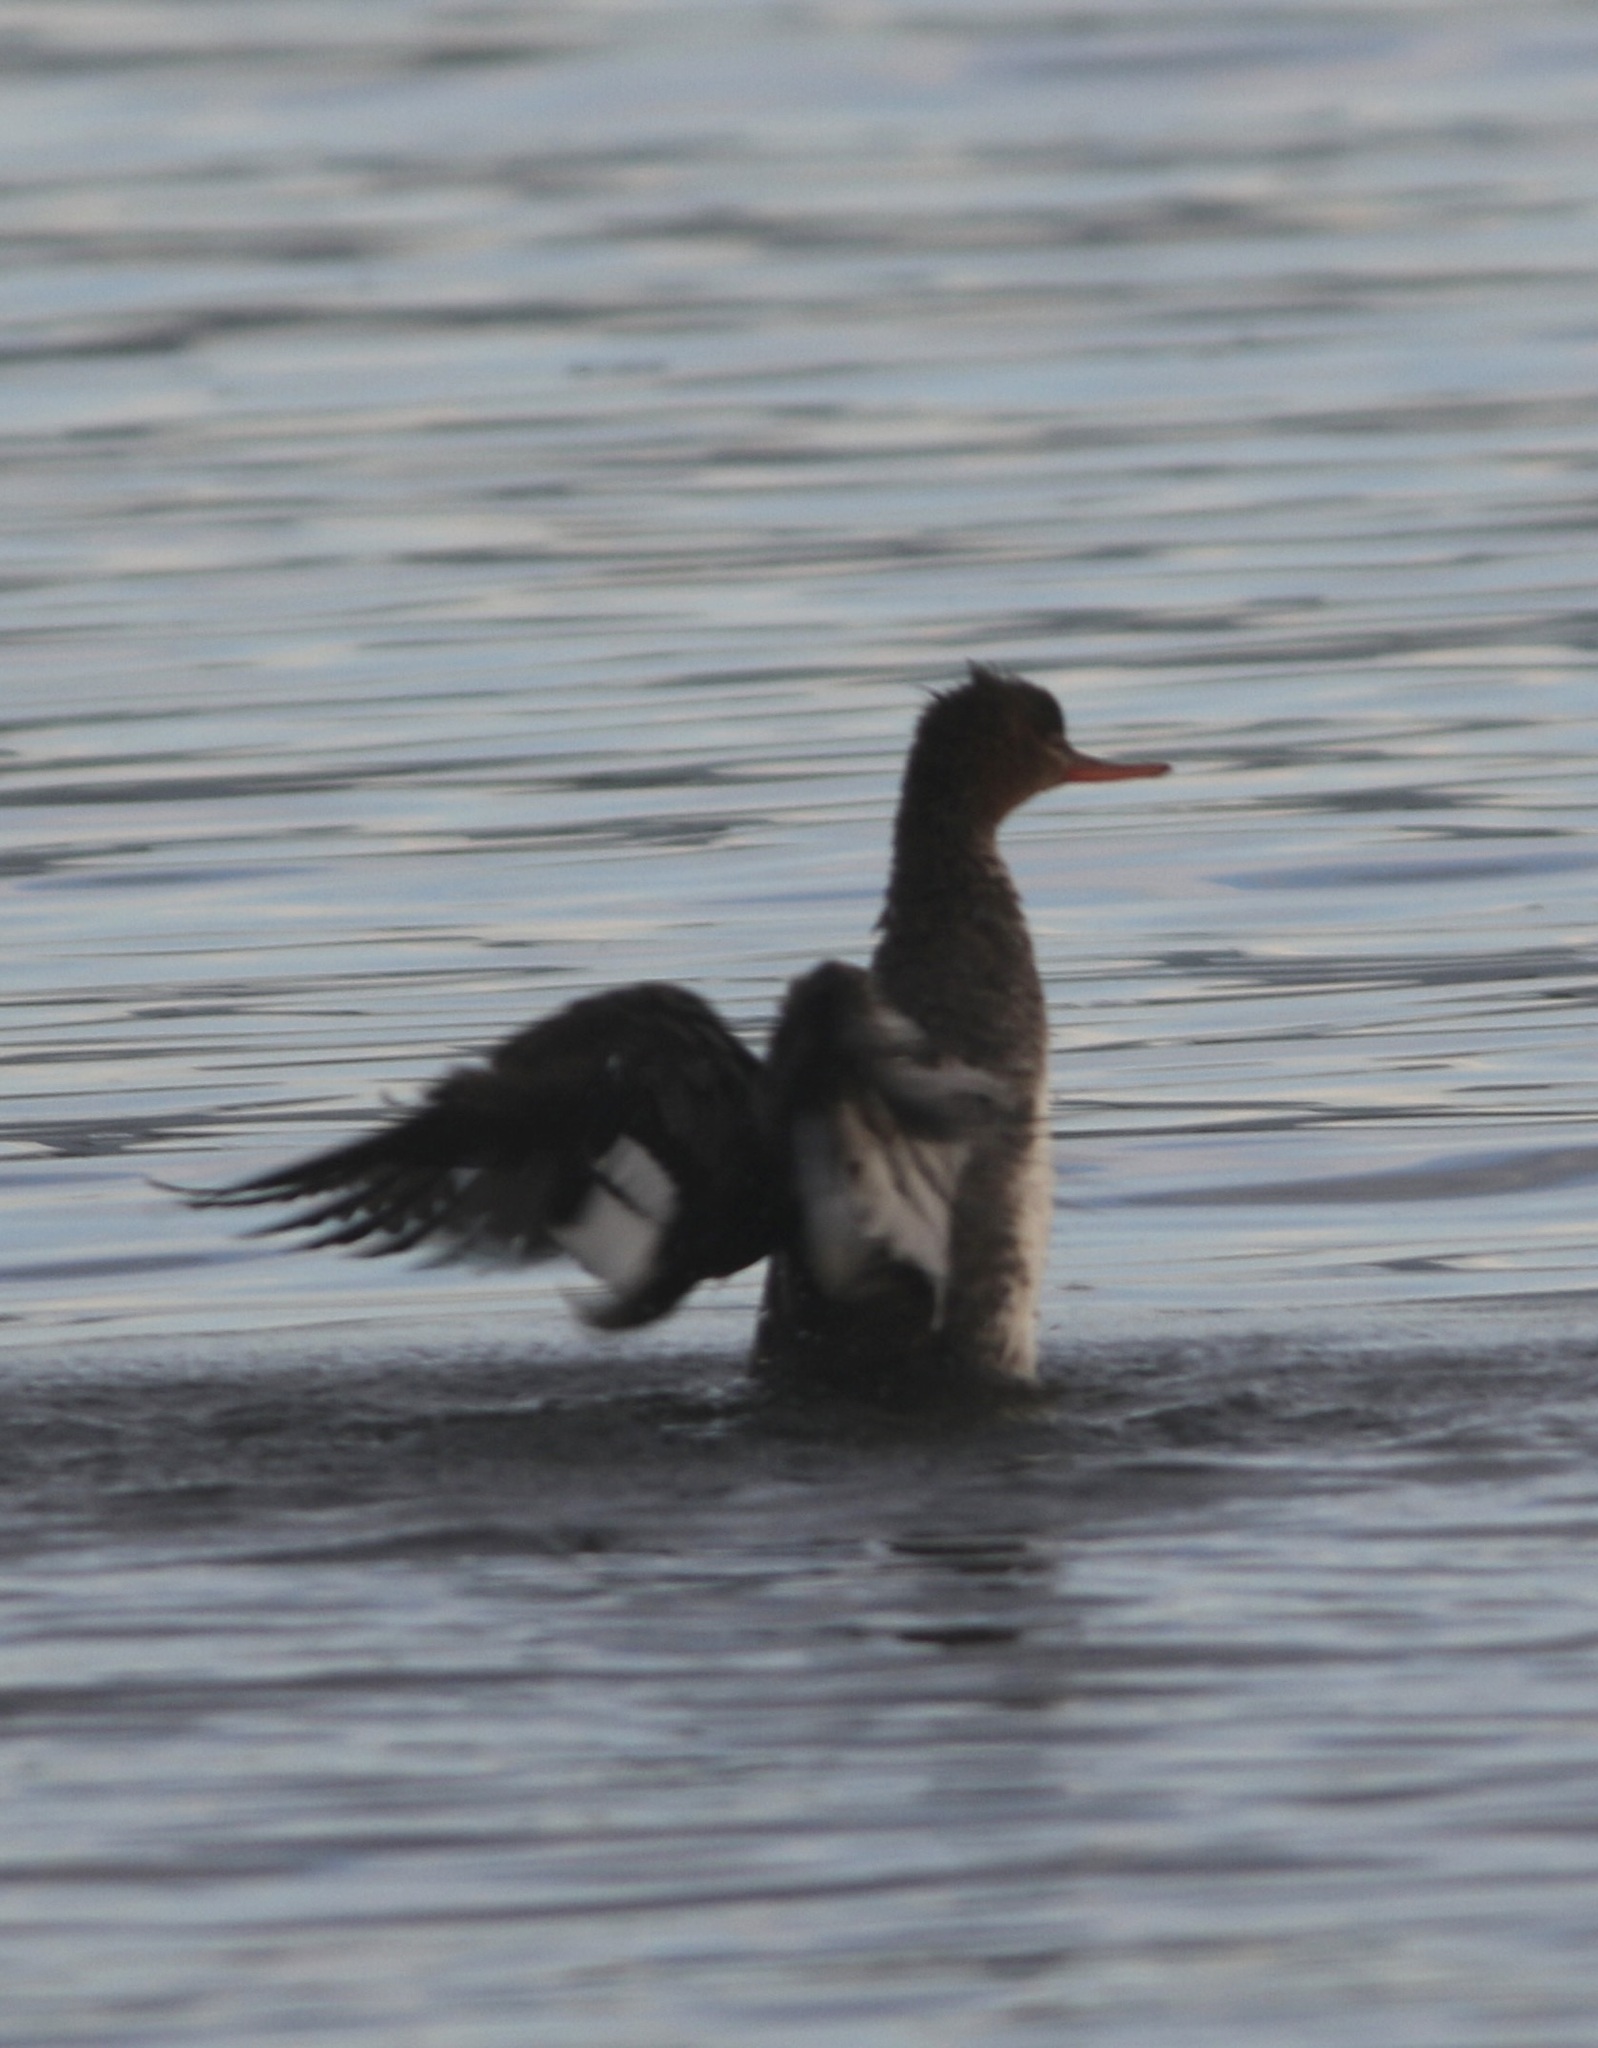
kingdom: Animalia
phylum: Chordata
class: Aves
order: Anseriformes
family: Anatidae
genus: Mergus
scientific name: Mergus serrator
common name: Red-breasted merganser
